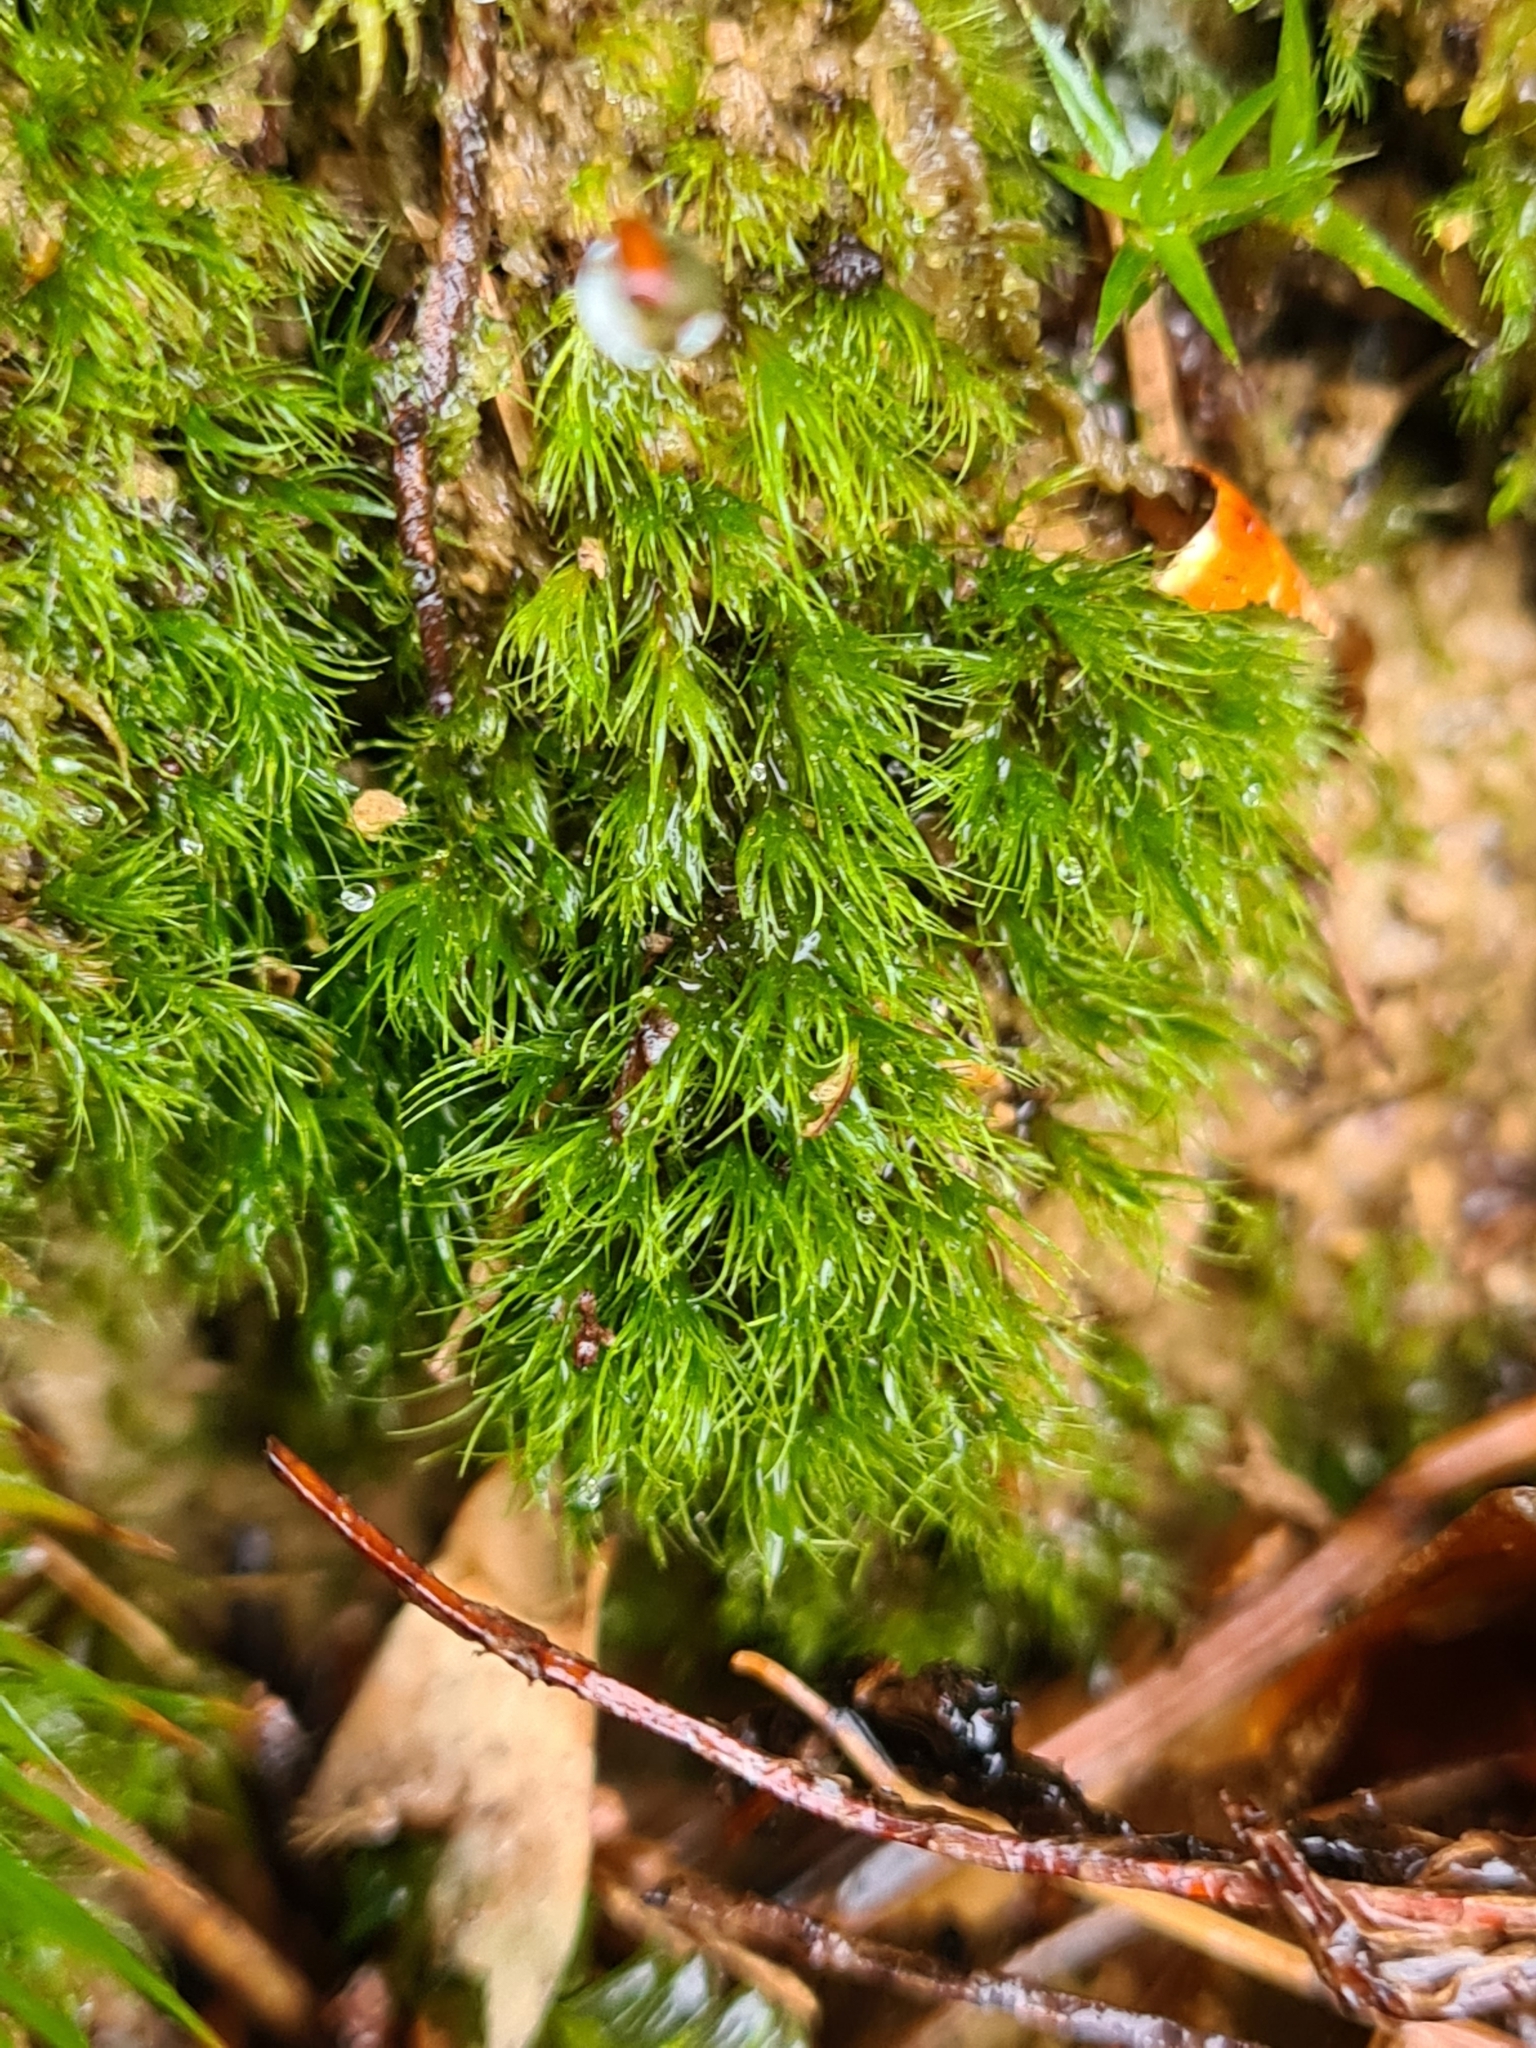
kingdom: Plantae
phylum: Bryophyta
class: Bryopsida
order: Dicranales
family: Dicranellaceae
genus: Dicranella
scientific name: Dicranella heteromalla
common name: Silky forklet moss
